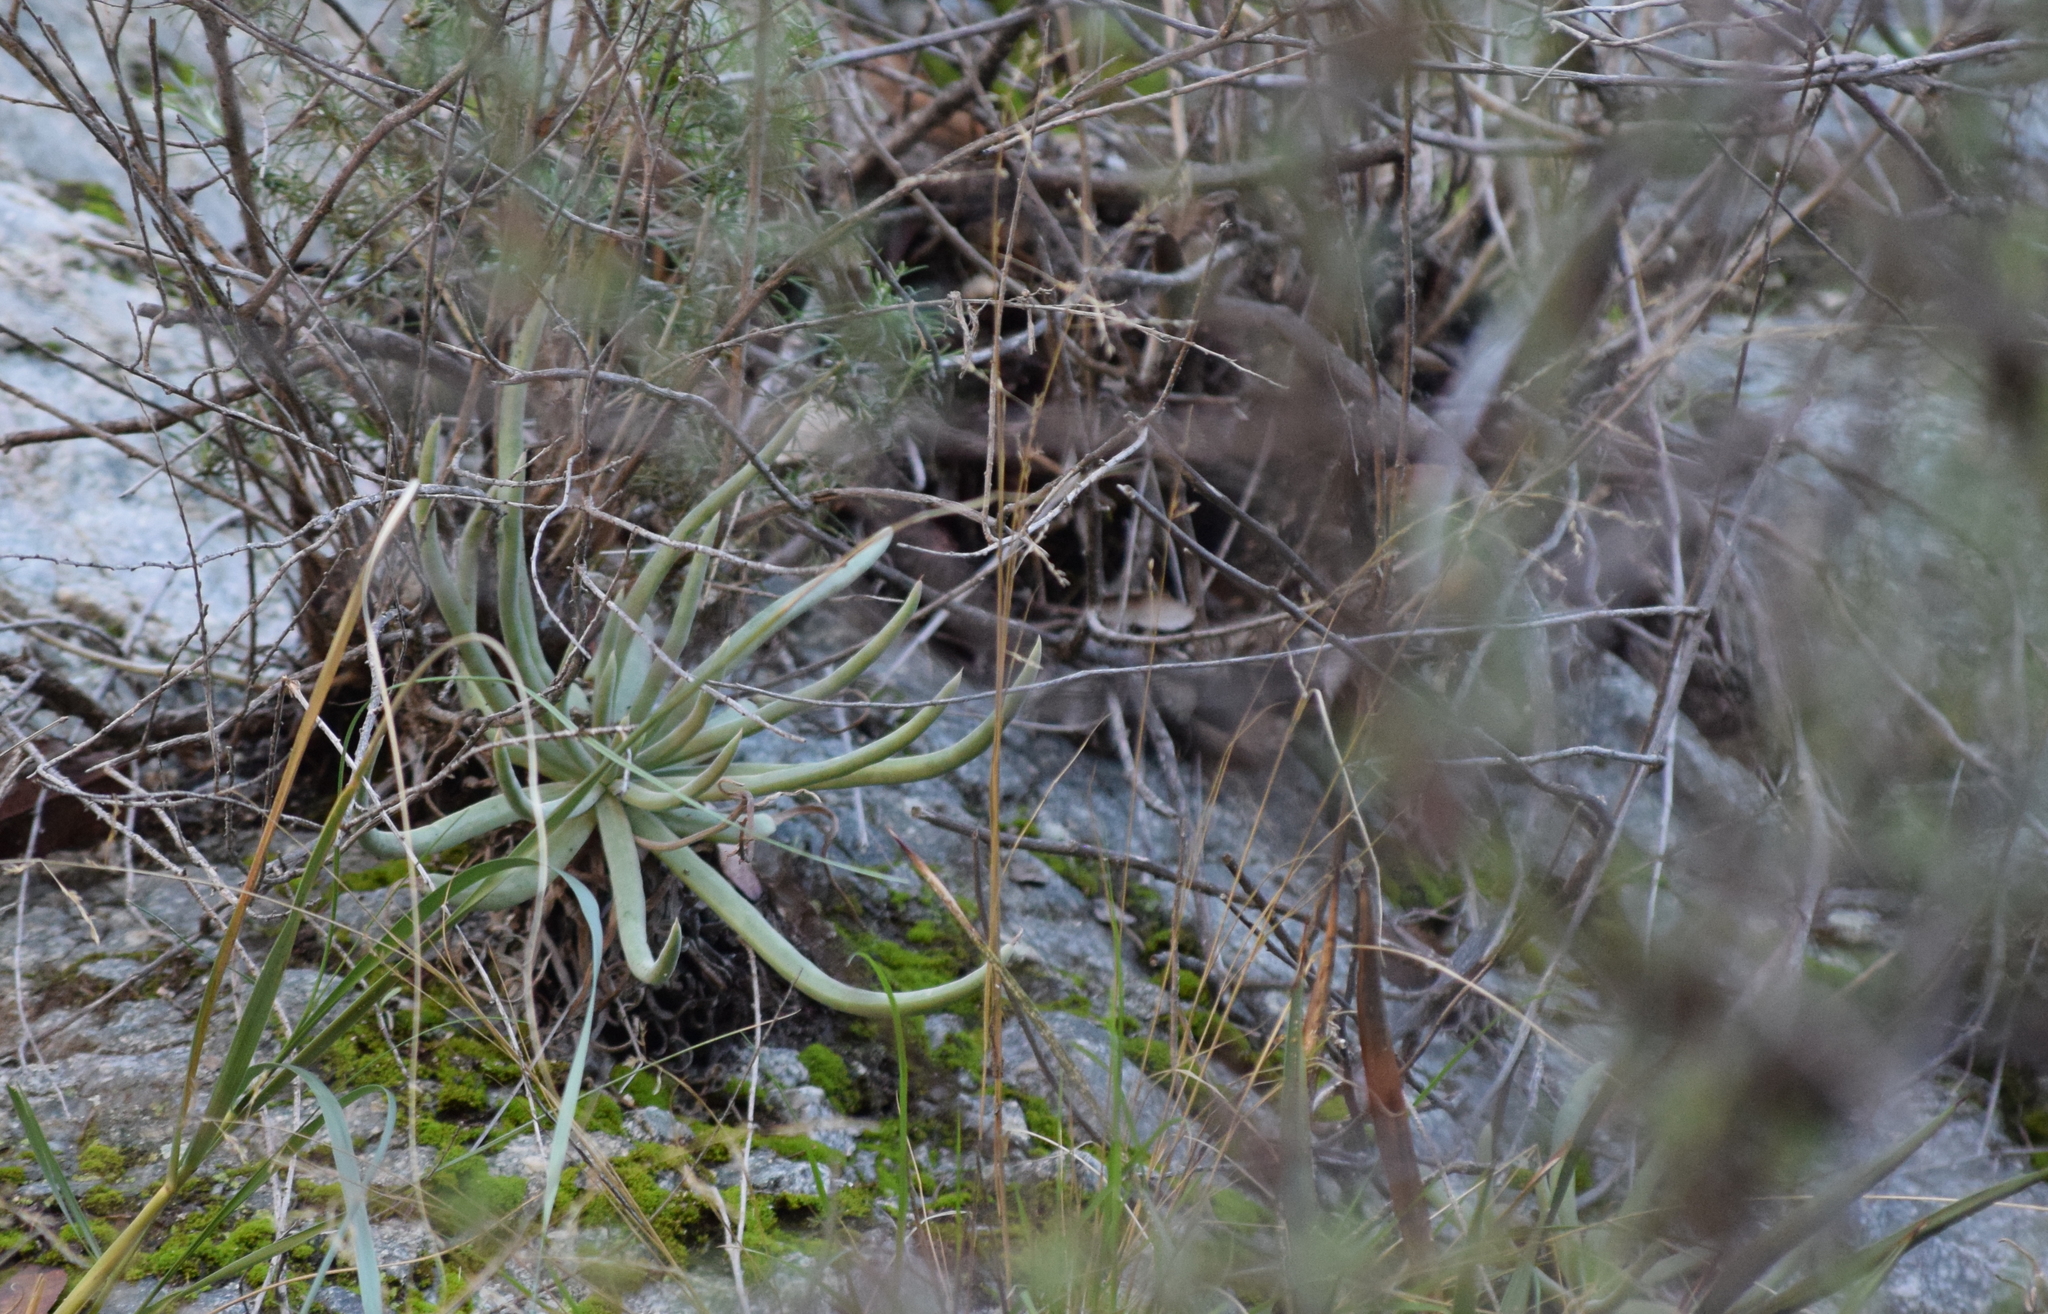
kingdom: Plantae
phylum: Tracheophyta
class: Magnoliopsida
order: Saxifragales
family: Crassulaceae
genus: Dudleya
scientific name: Dudleya densiflora
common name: San gabriel mountains dudleya
